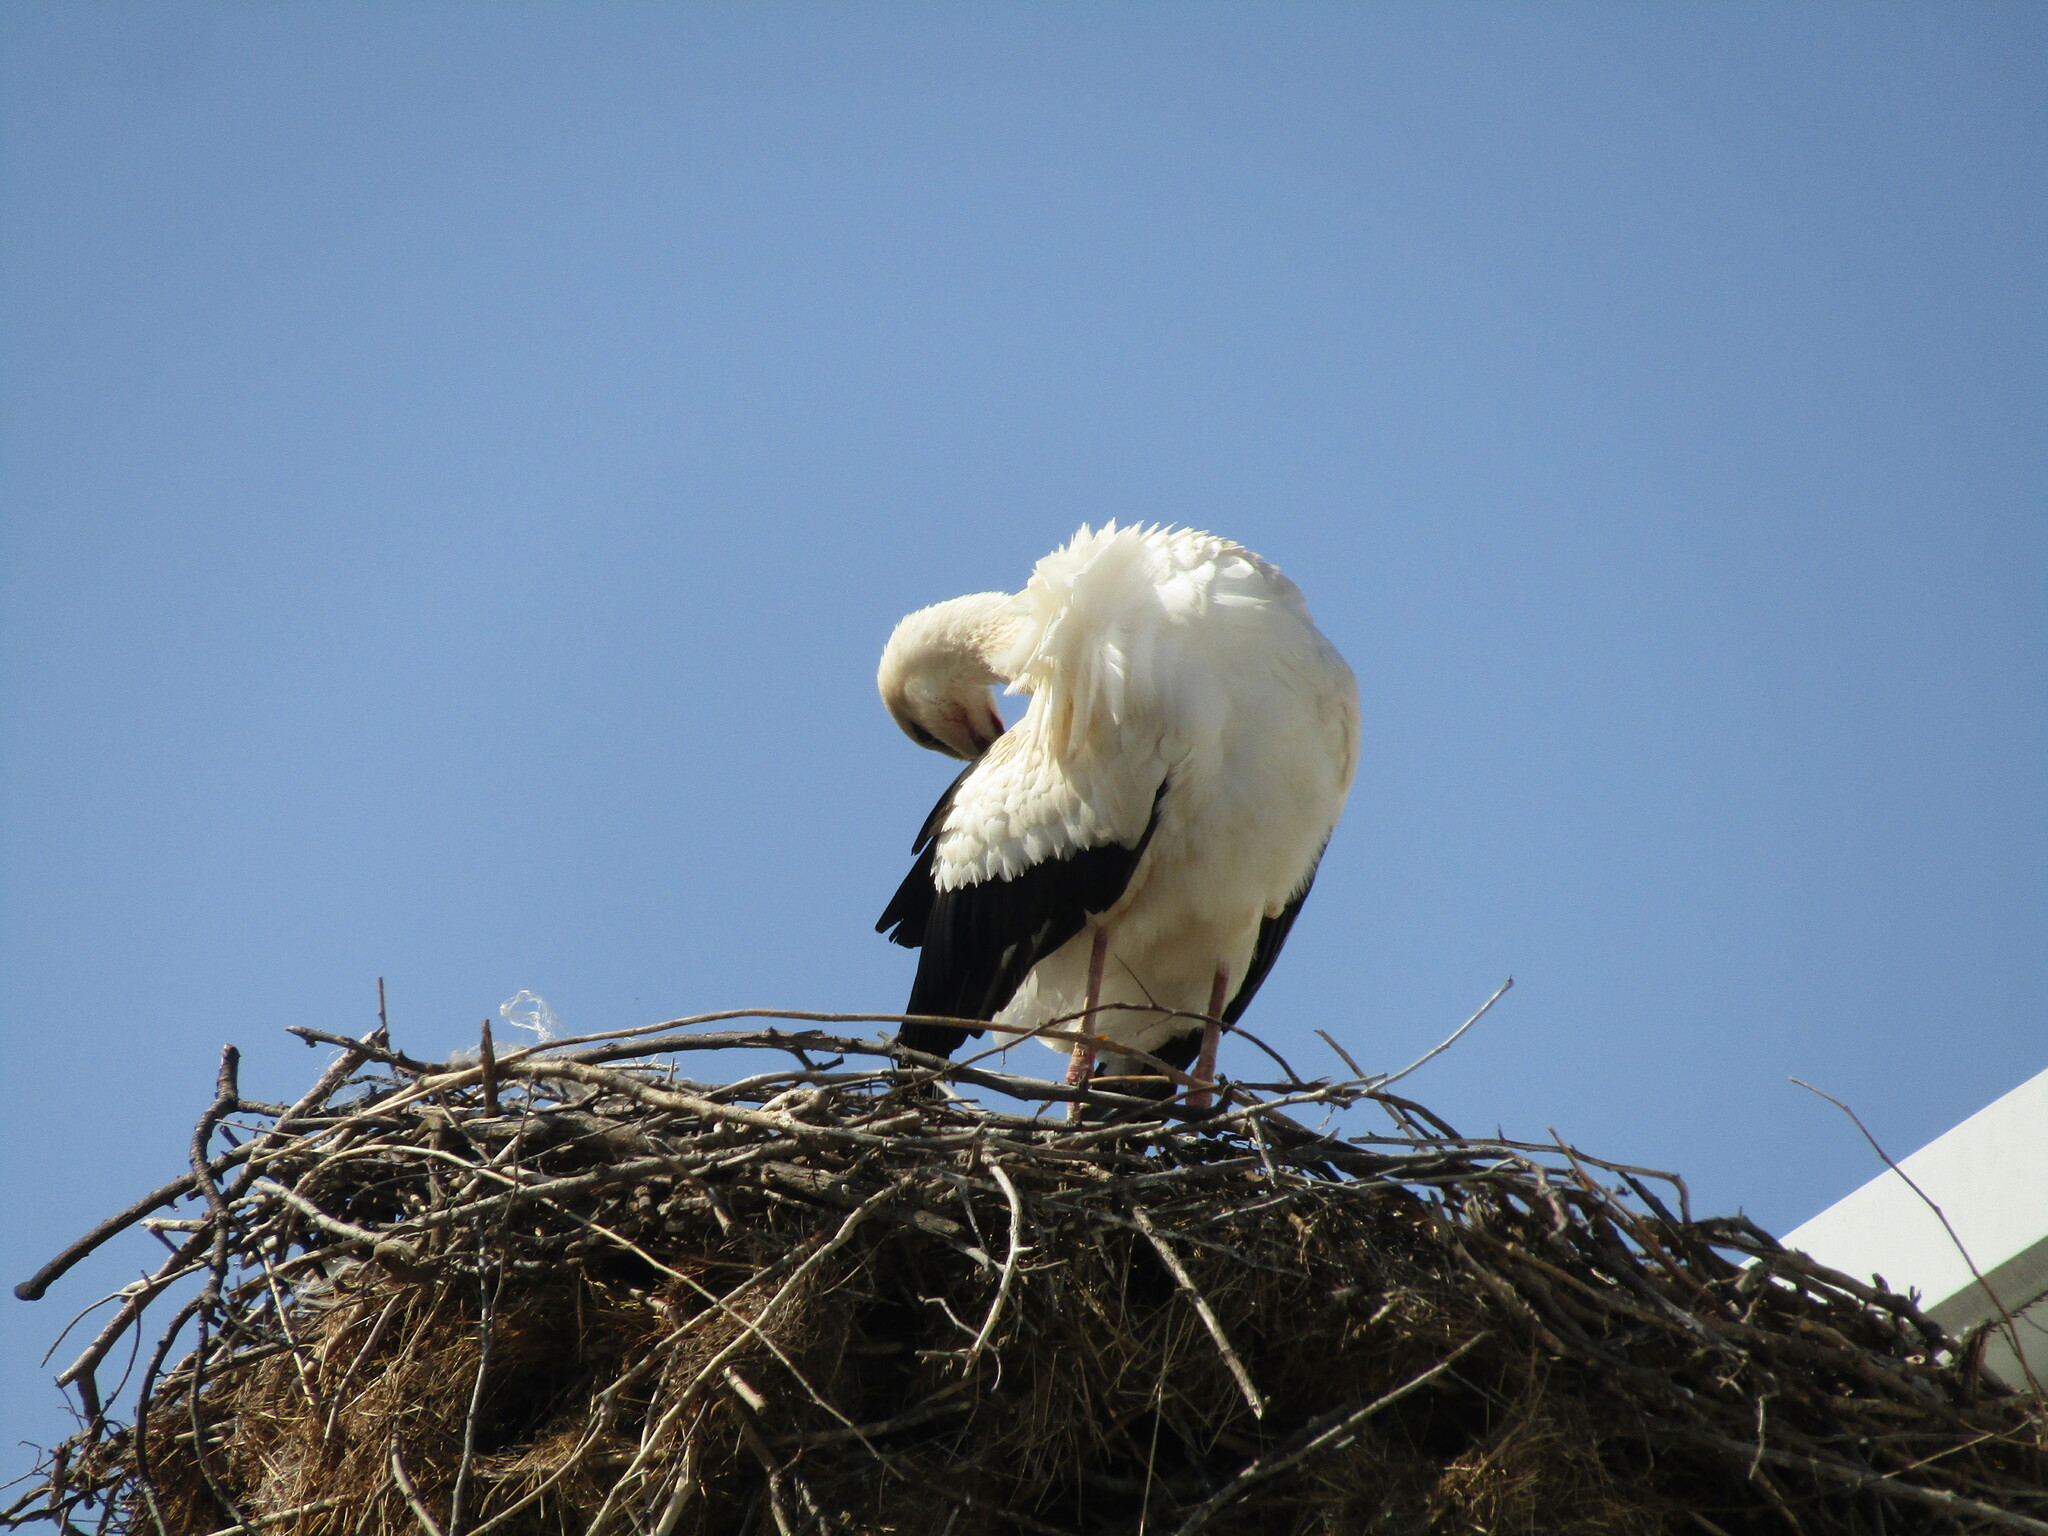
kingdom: Animalia
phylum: Chordata
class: Aves
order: Ciconiiformes
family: Ciconiidae
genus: Ciconia
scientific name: Ciconia ciconia
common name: White stork
